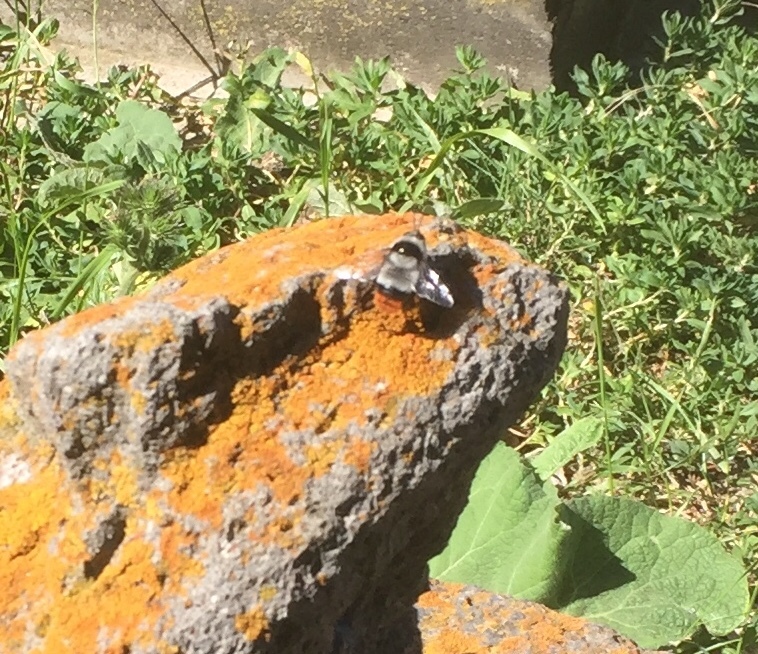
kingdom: Animalia
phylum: Arthropoda
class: Insecta
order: Hymenoptera
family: Apidae
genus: Bombus
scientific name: Bombus niveatus
